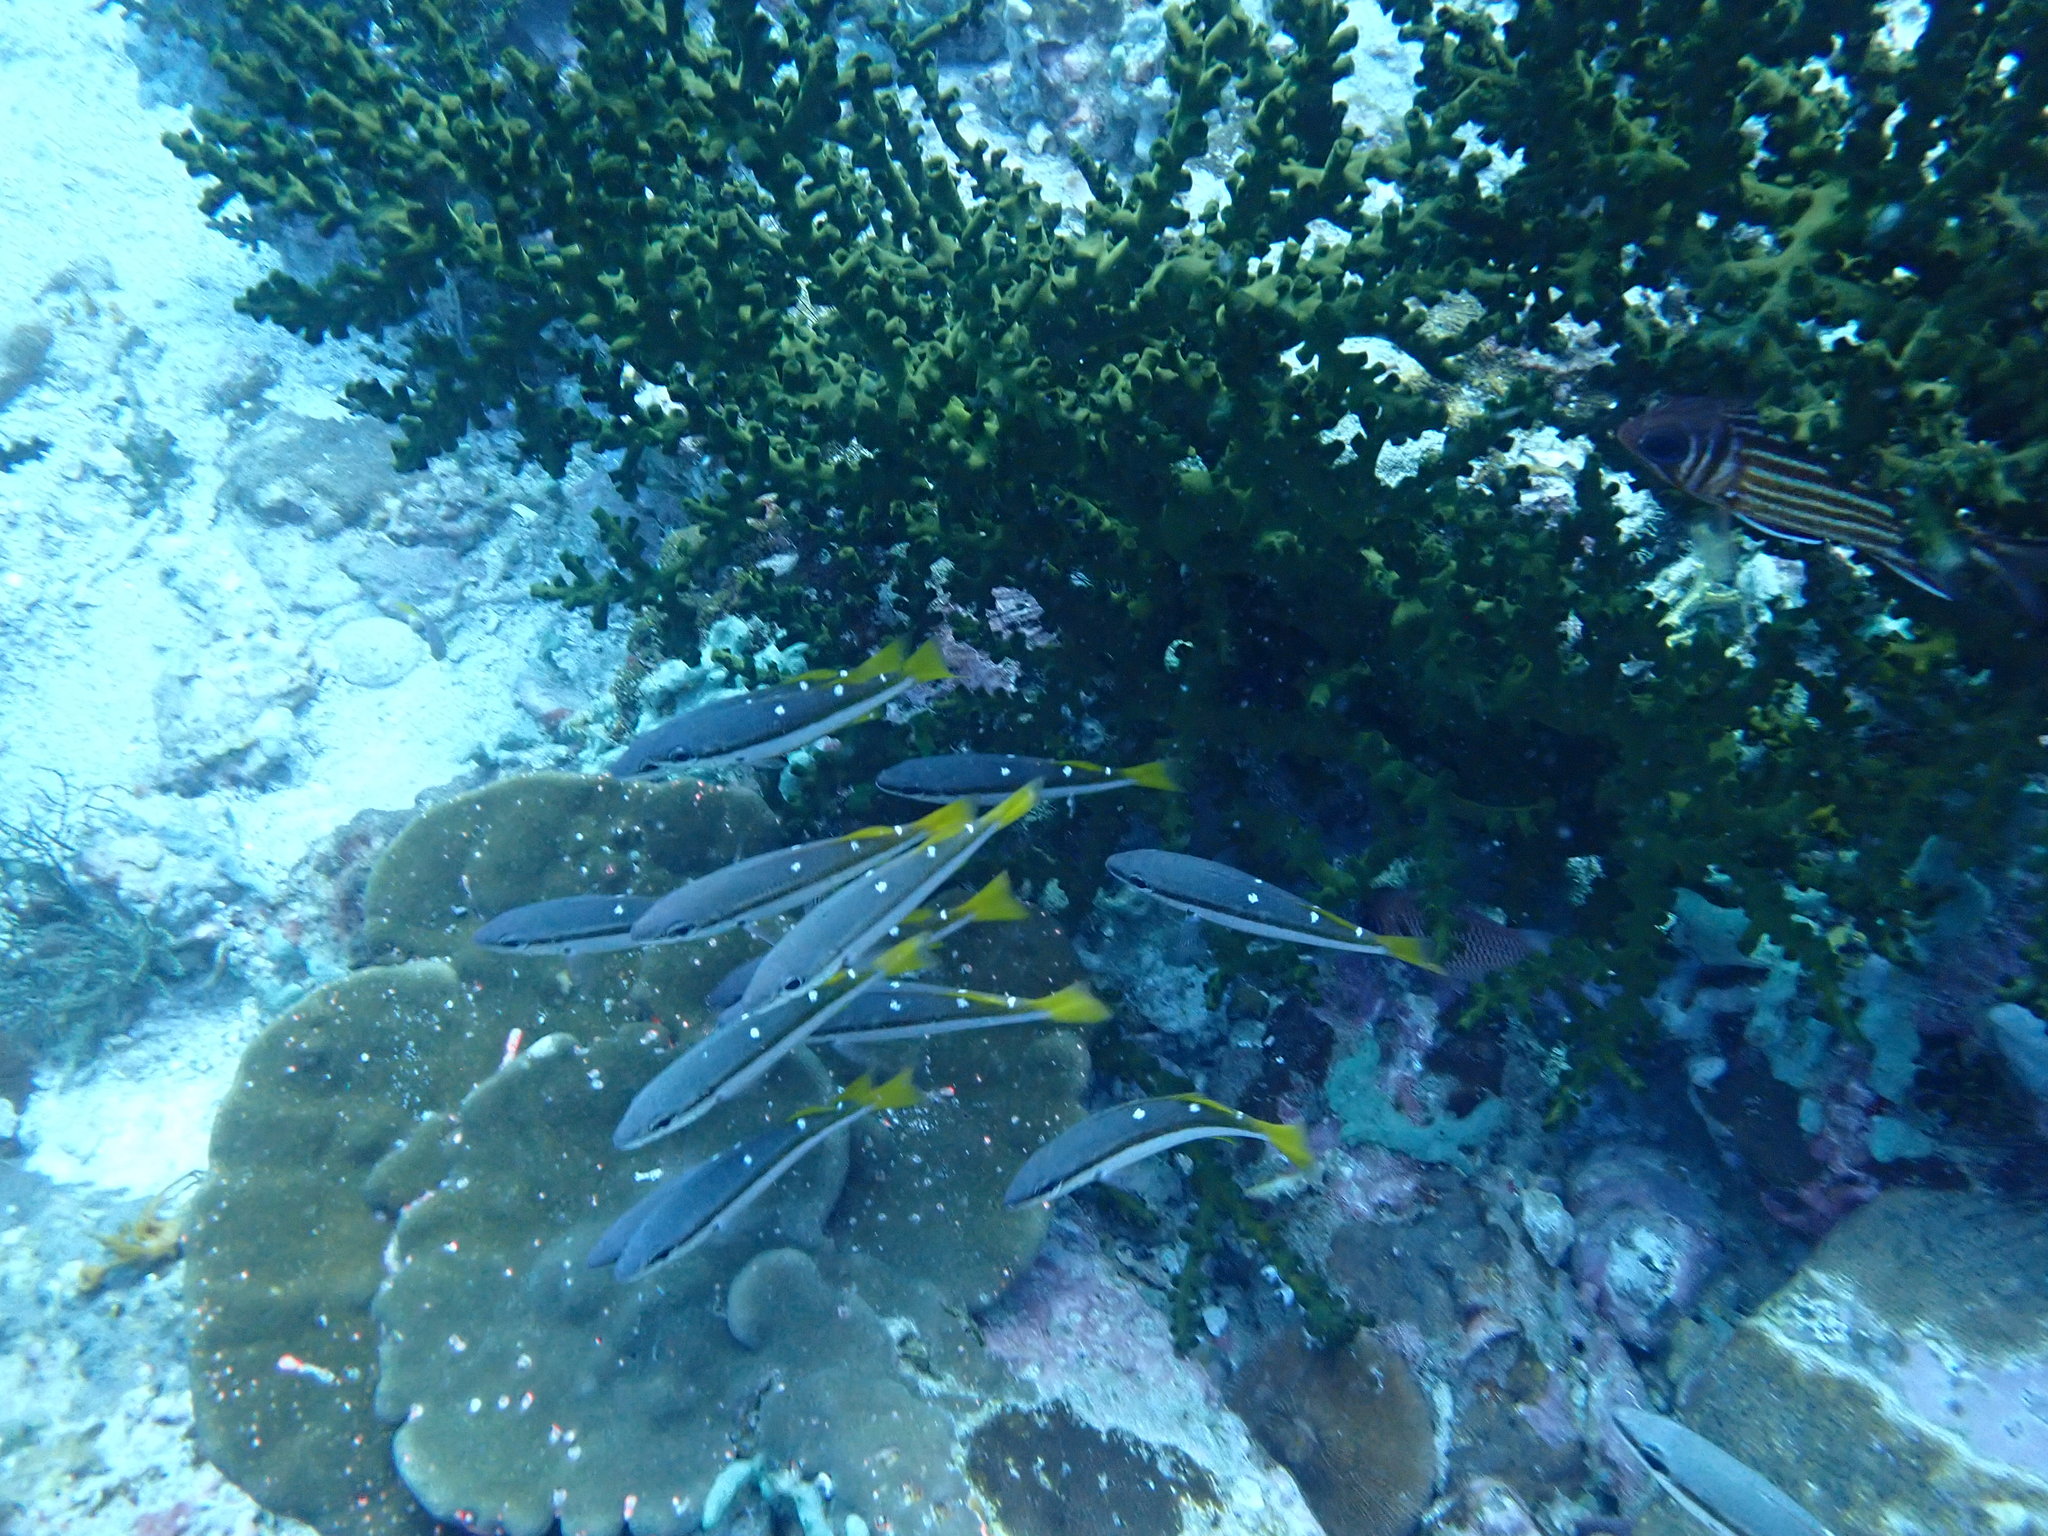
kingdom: Animalia
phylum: Chordata
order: Perciformes
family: Lutjanidae
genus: Lutjanus
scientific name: Lutjanus biguttatus
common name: Two-spot snapper
